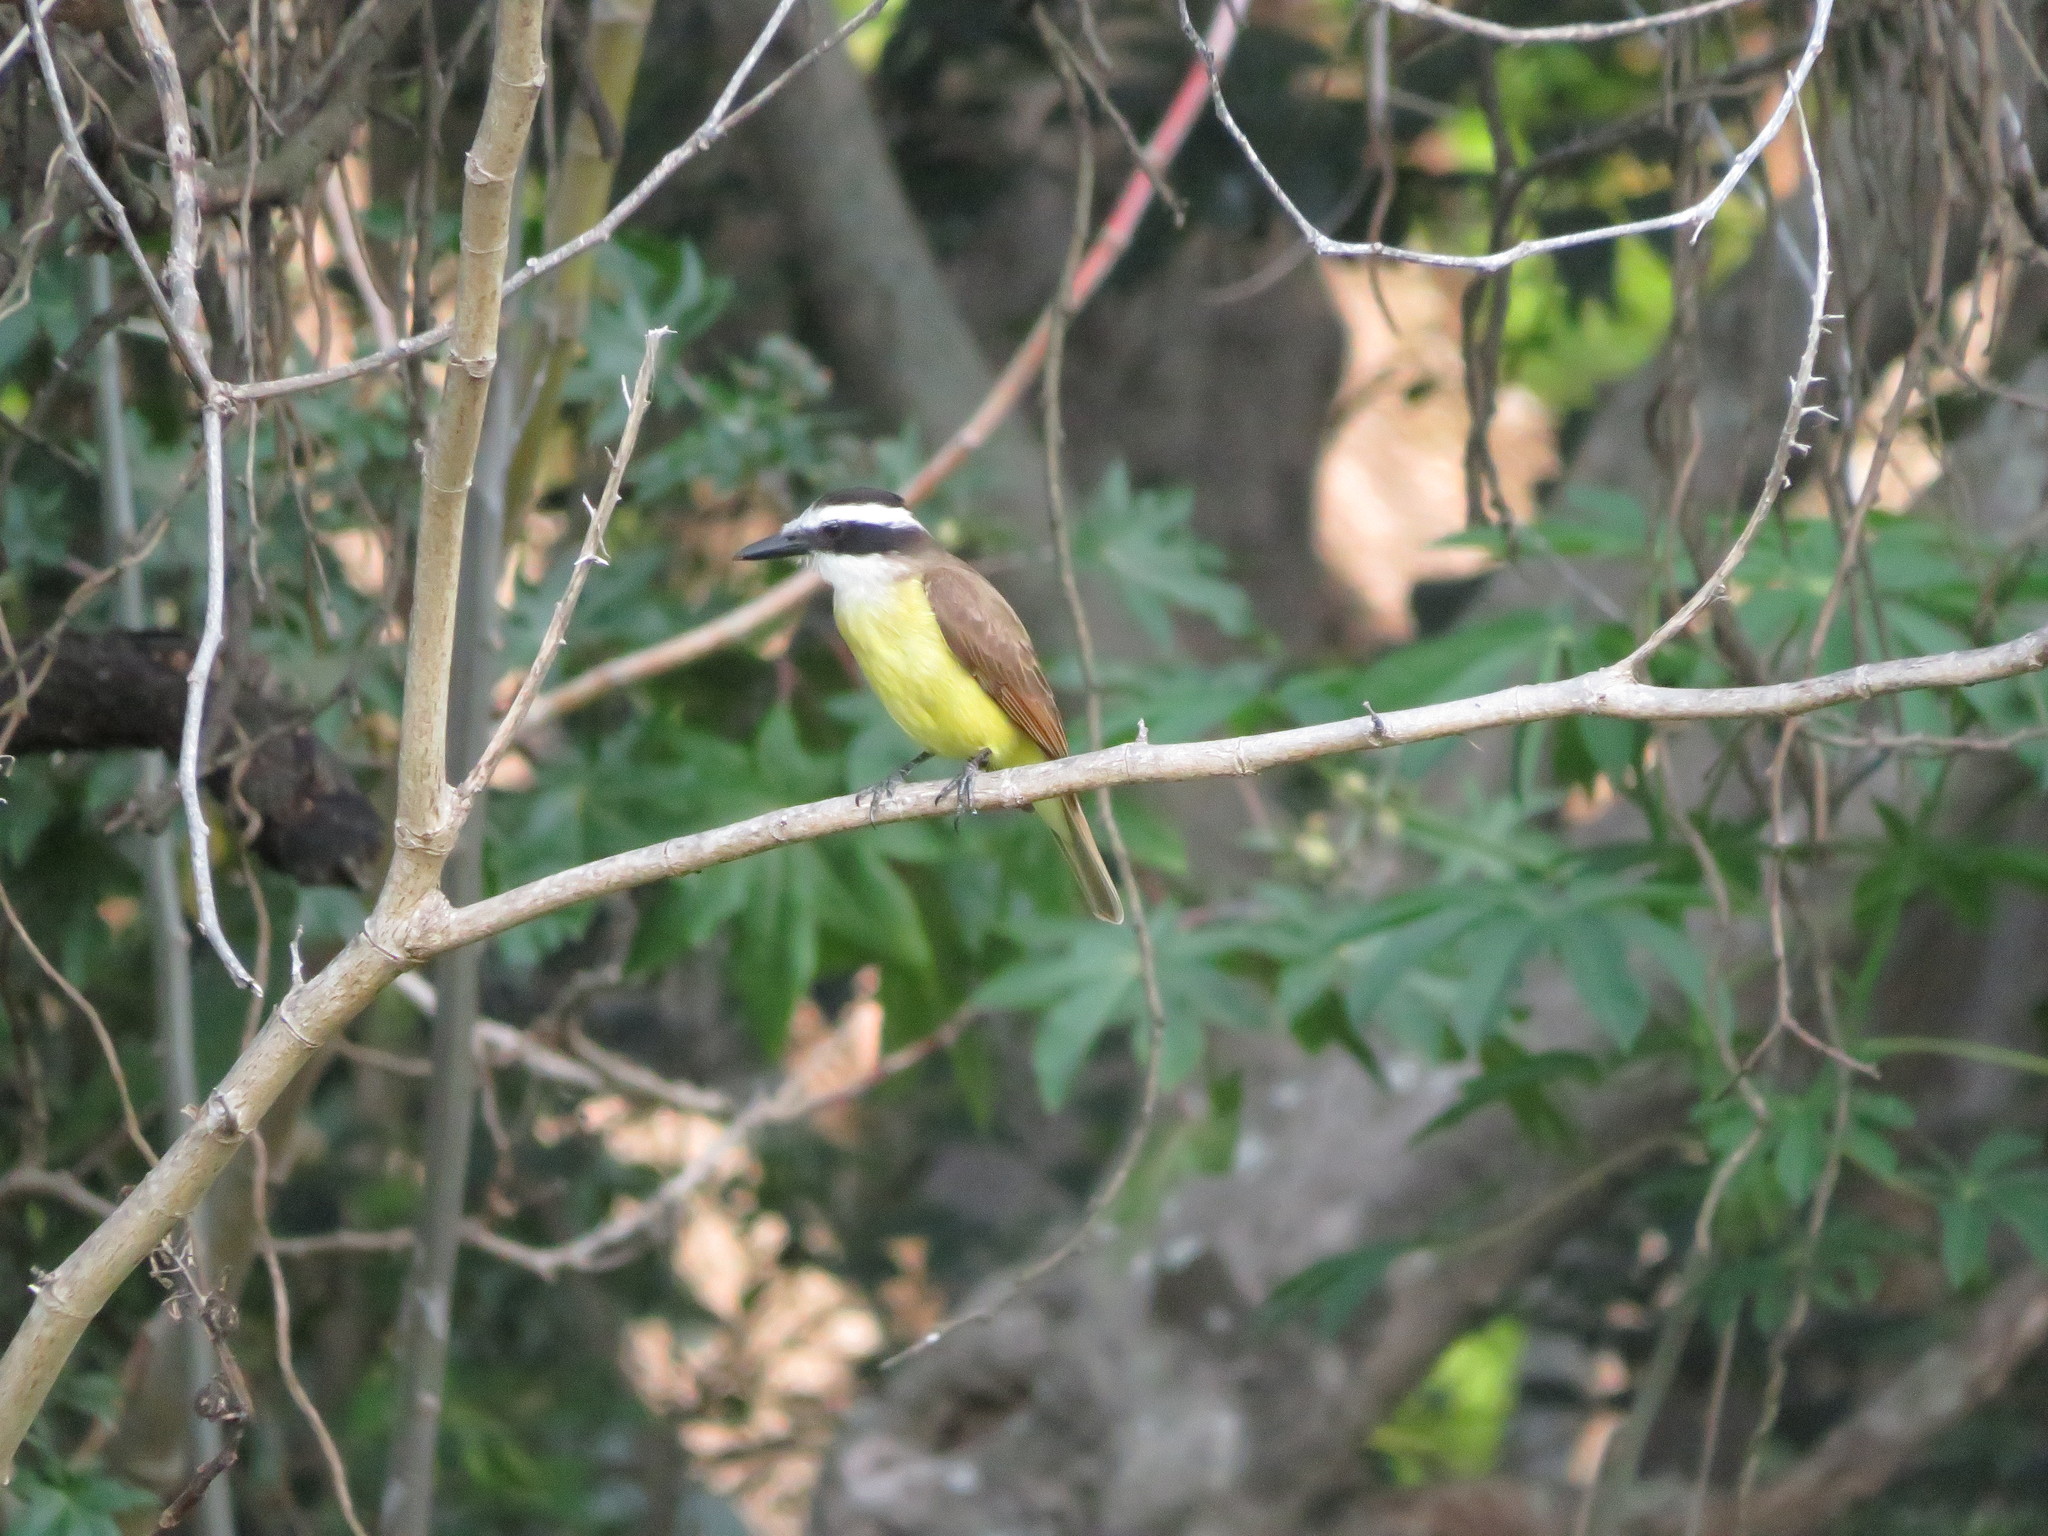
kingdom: Animalia
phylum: Chordata
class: Aves
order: Passeriformes
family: Tyrannidae
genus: Pitangus
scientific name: Pitangus sulphuratus
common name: Great kiskadee
